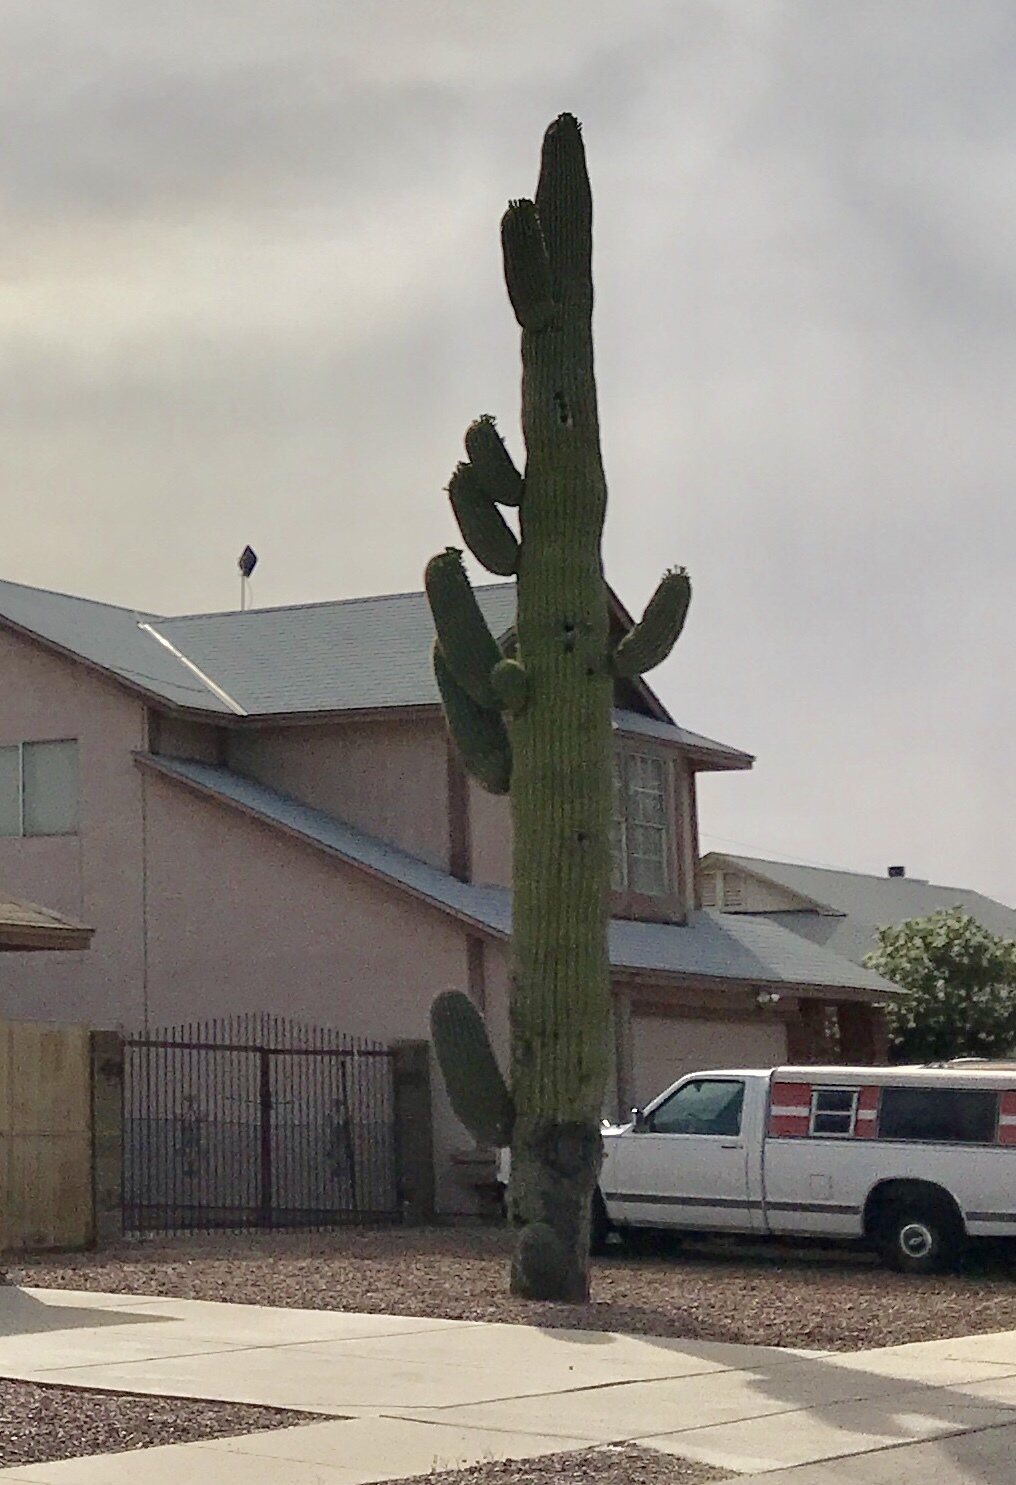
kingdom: Plantae
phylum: Tracheophyta
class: Magnoliopsida
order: Caryophyllales
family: Cactaceae
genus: Carnegiea
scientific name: Carnegiea gigantea
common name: Saguaro
